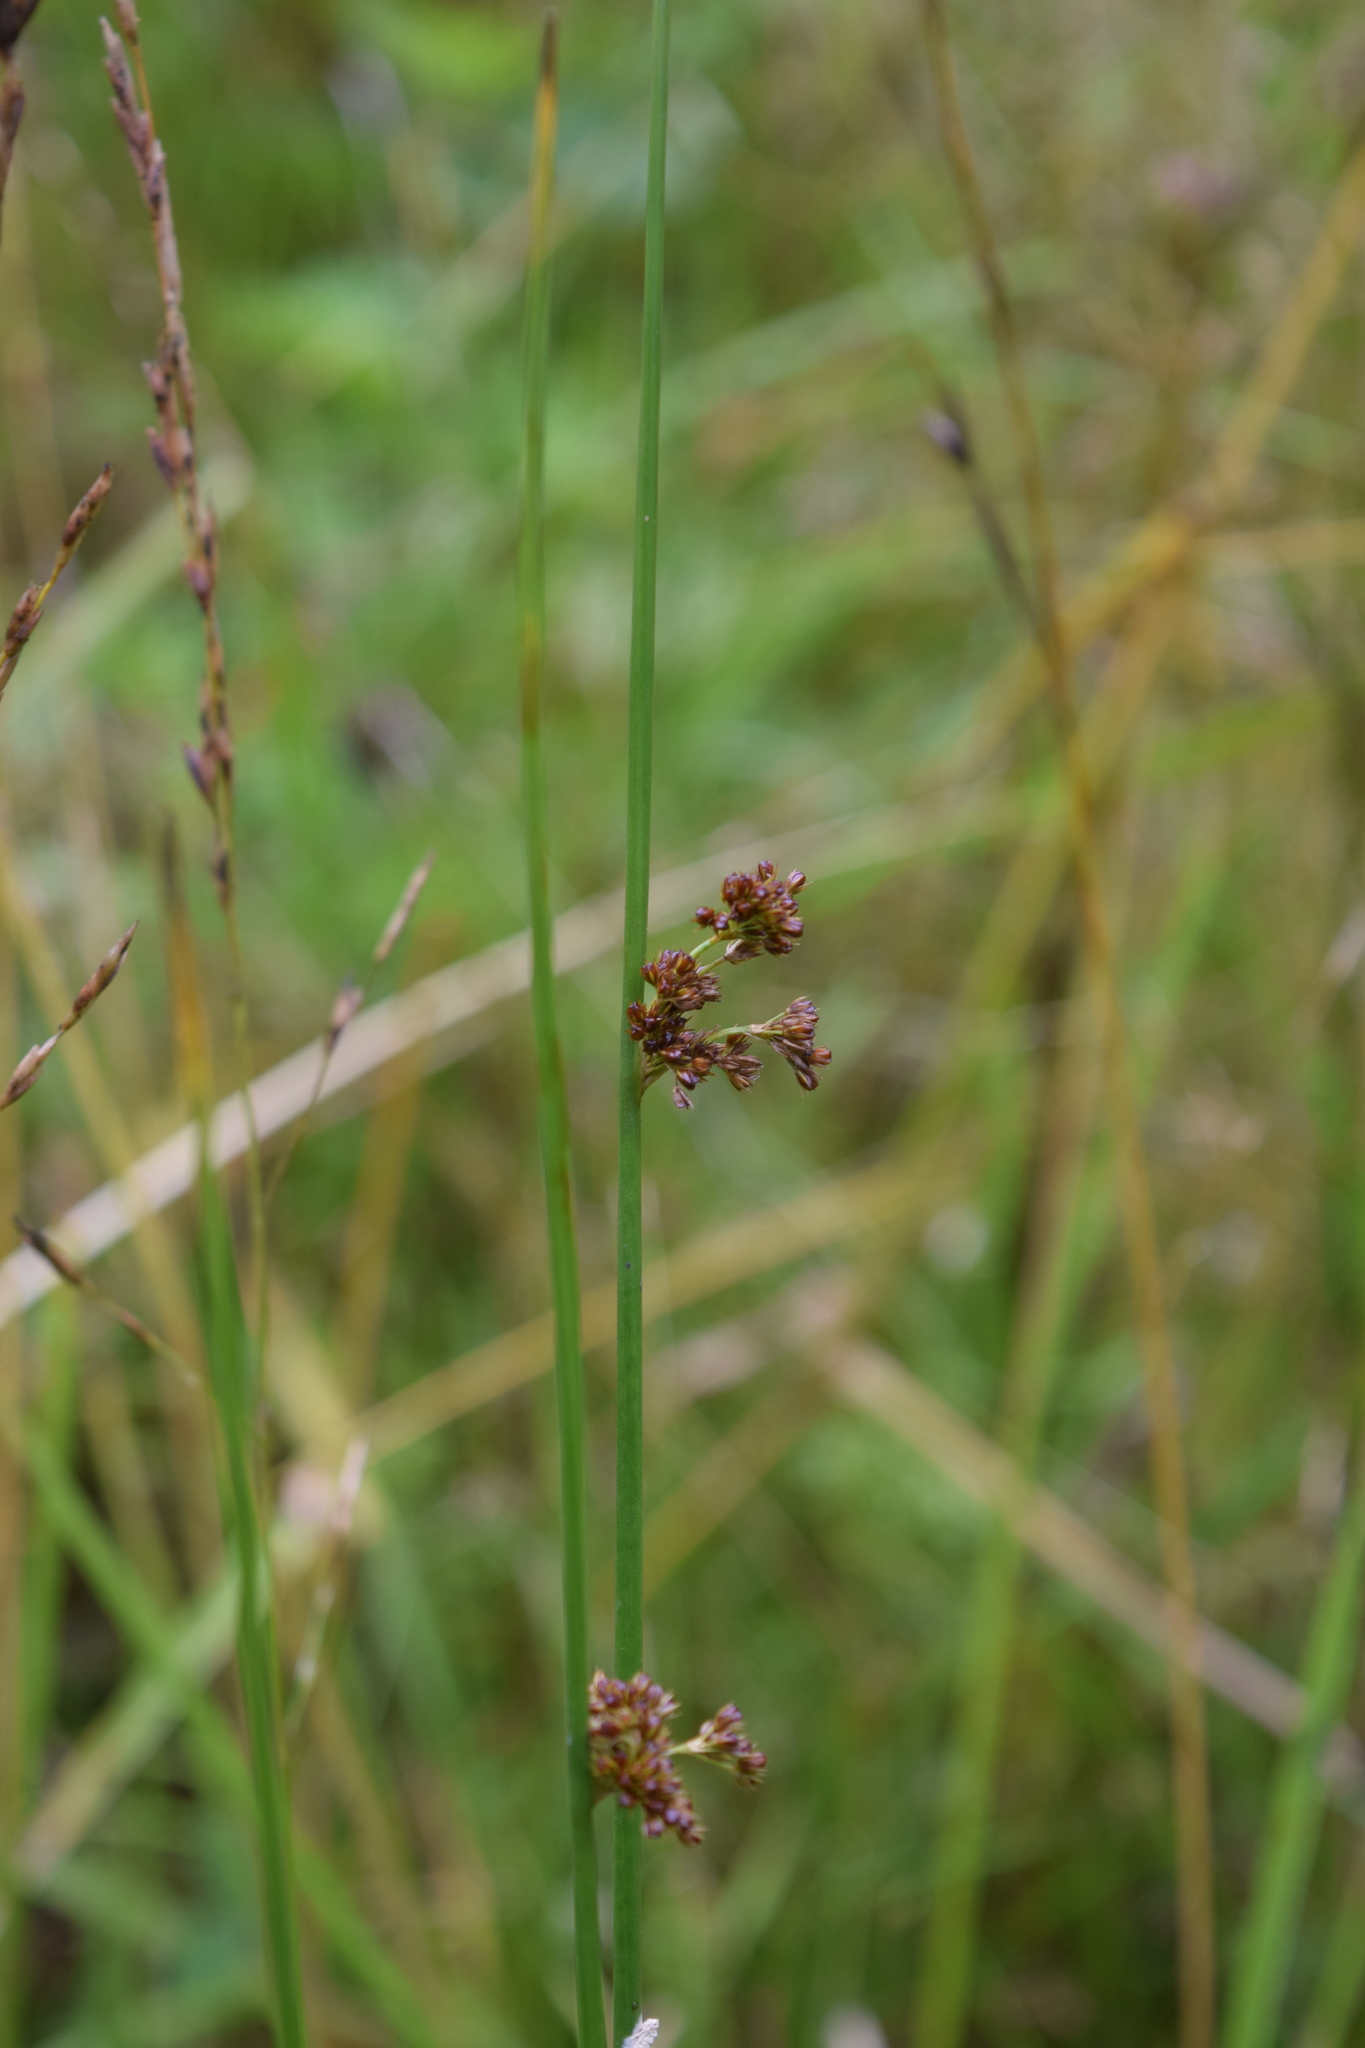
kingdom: Plantae
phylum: Tracheophyta
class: Liliopsida
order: Poales
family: Juncaceae
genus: Juncus
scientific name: Juncus effusus
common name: Soft rush
